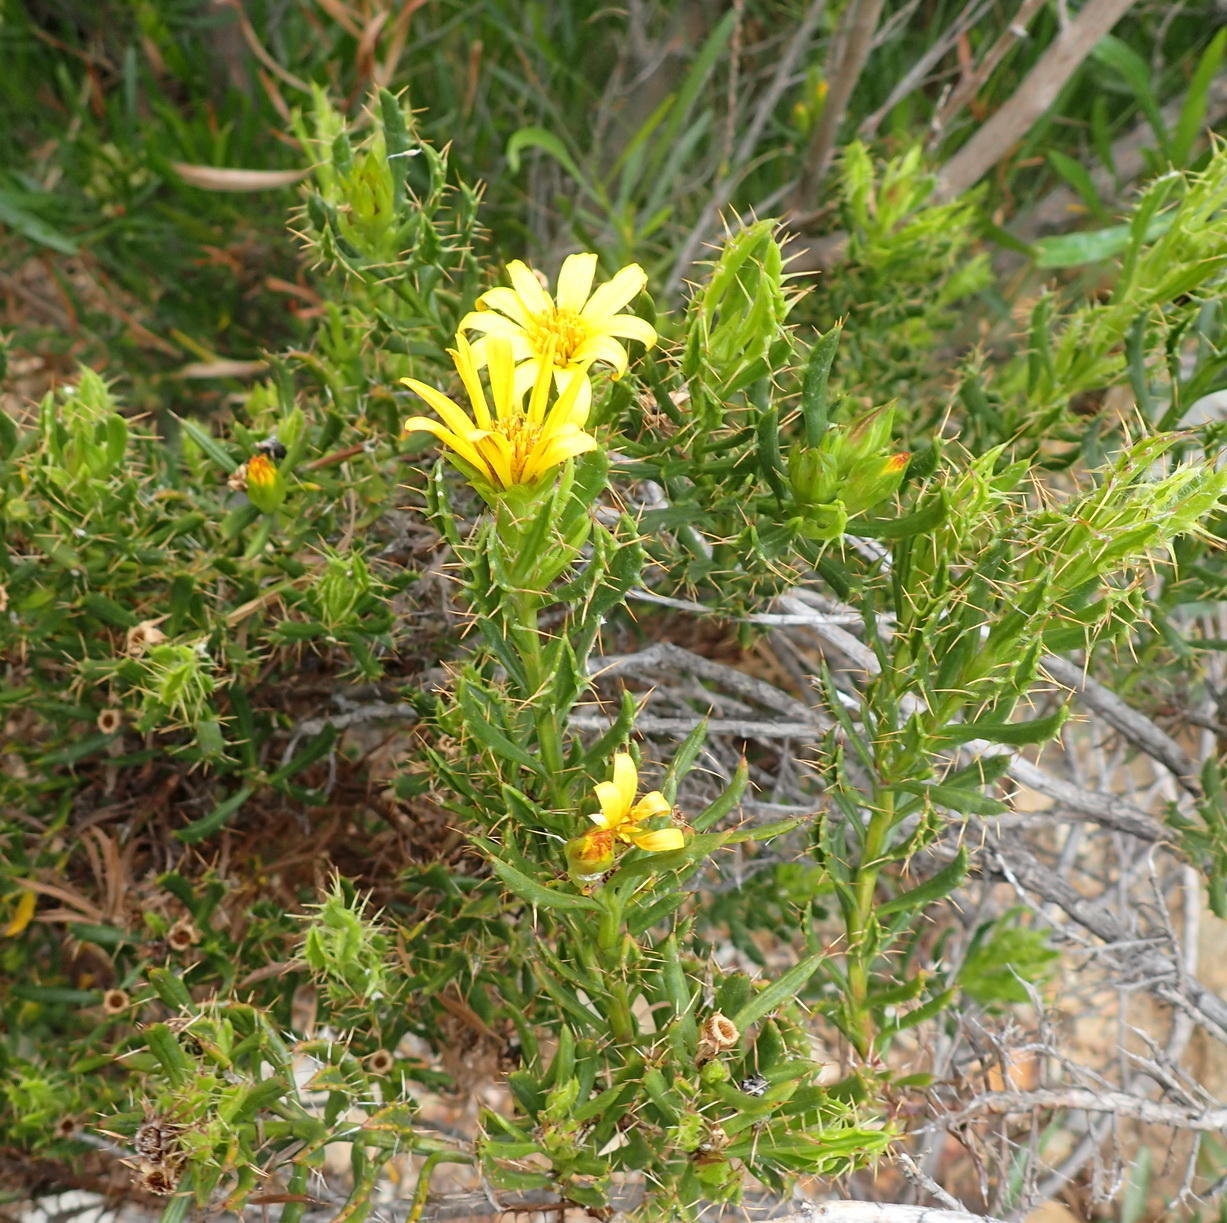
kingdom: Plantae
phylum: Tracheophyta
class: Magnoliopsida
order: Asterales
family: Asteraceae
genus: Cullumia
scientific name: Cullumia aculeata
